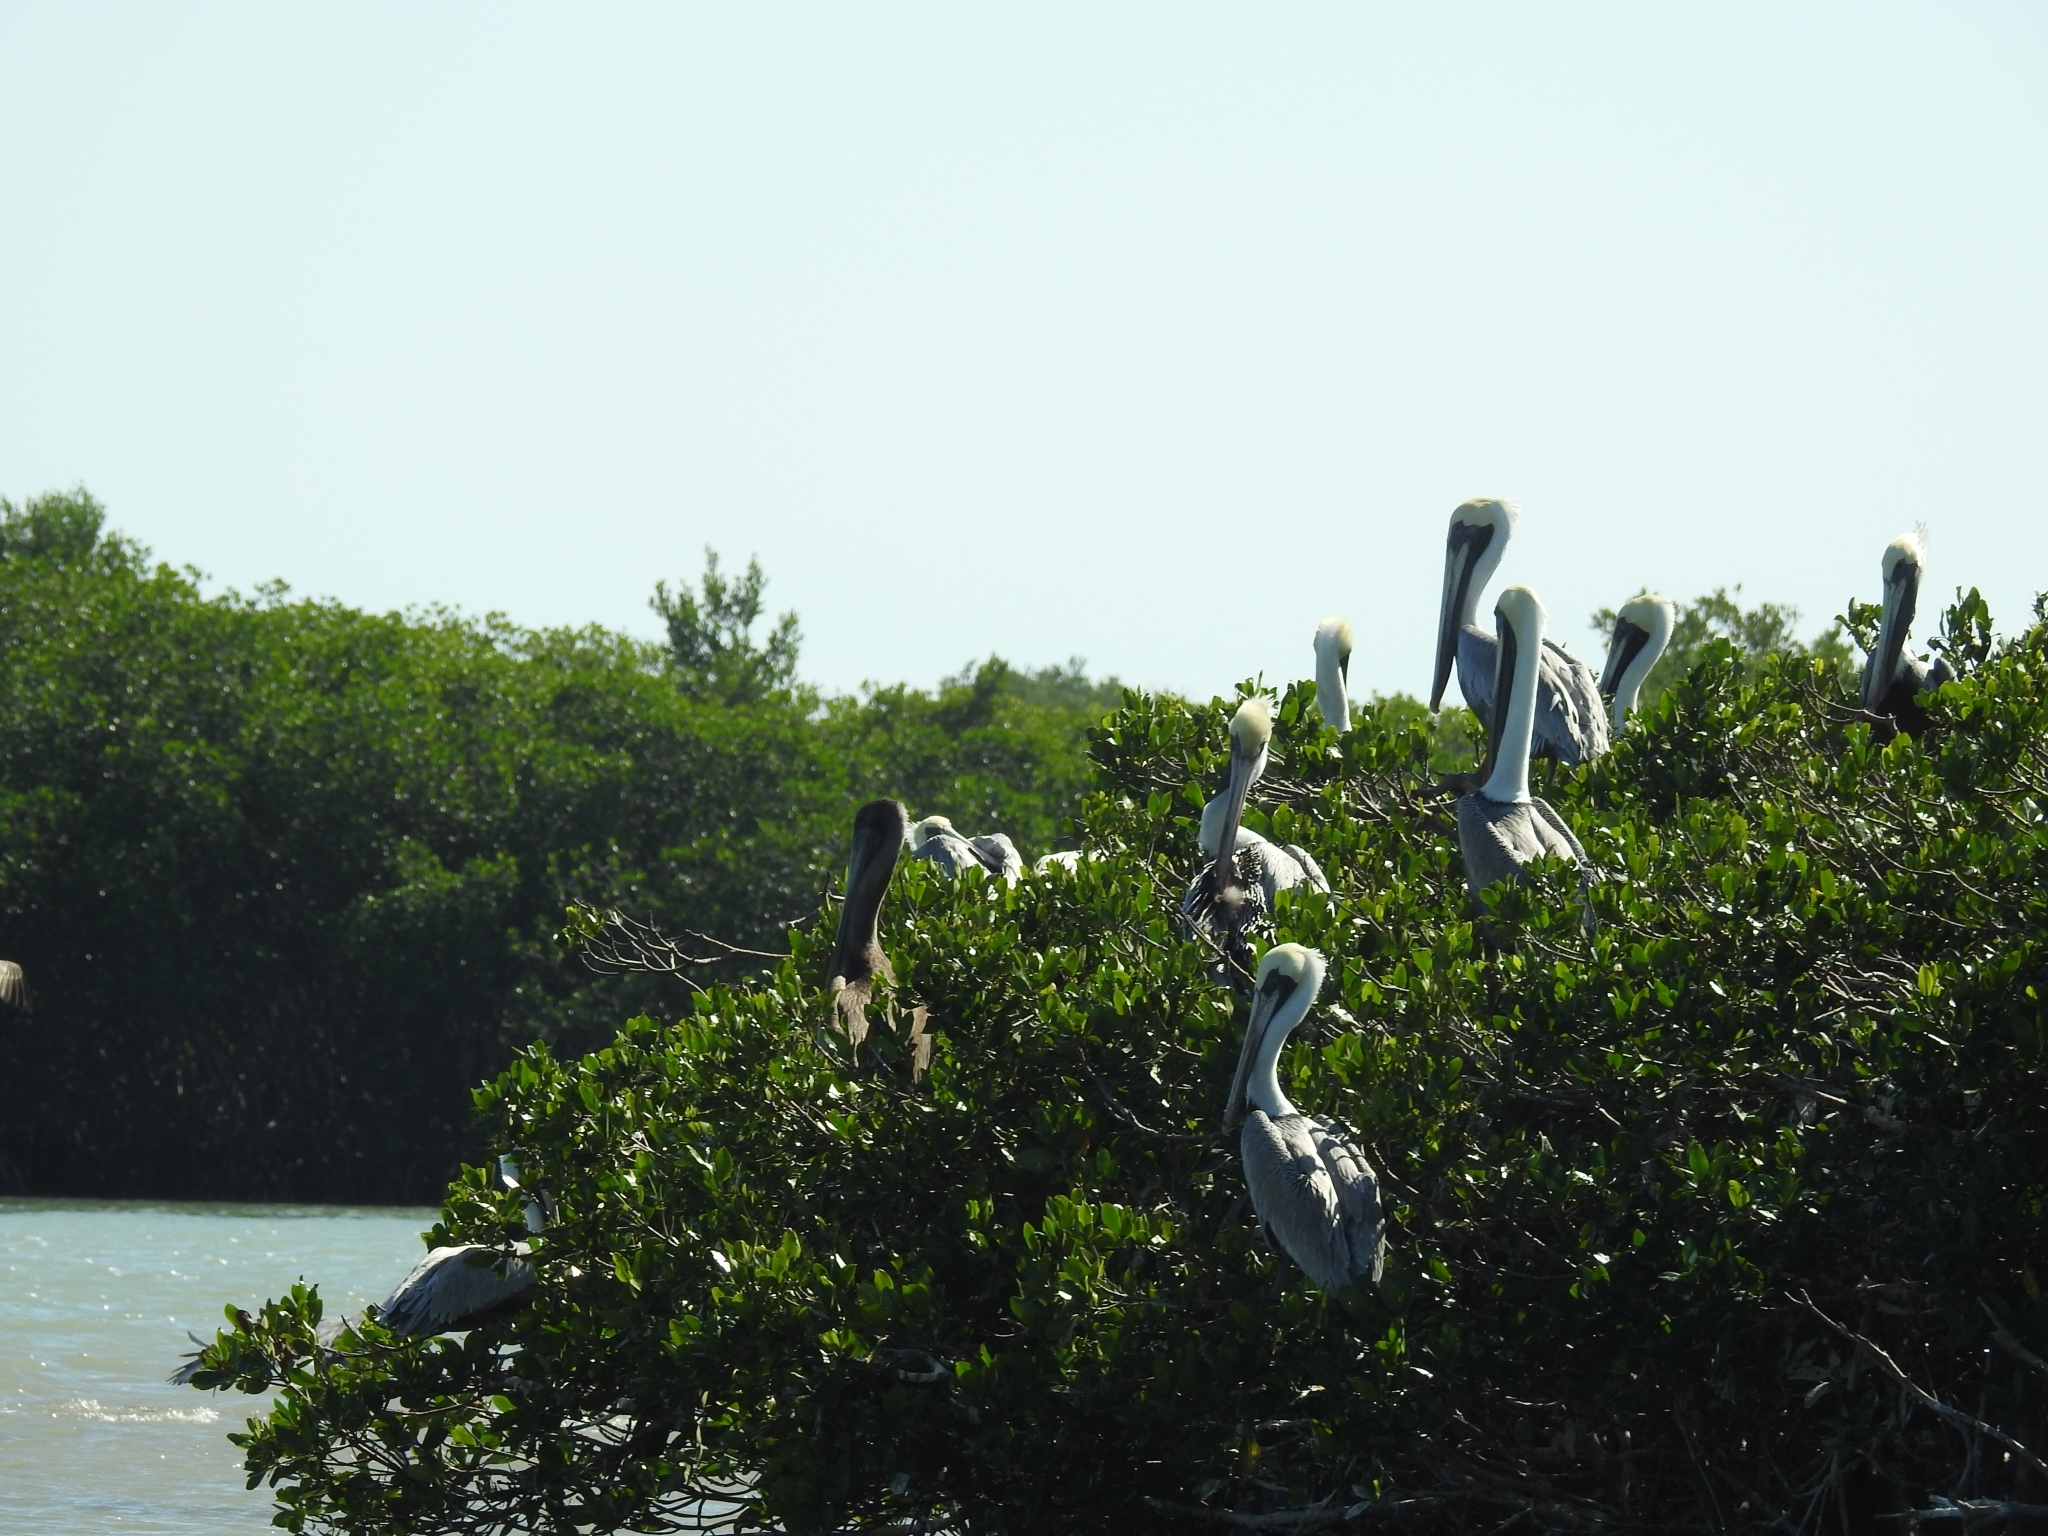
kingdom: Animalia
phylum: Chordata
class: Aves
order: Pelecaniformes
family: Pelecanidae
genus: Pelecanus
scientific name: Pelecanus occidentalis
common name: Brown pelican
